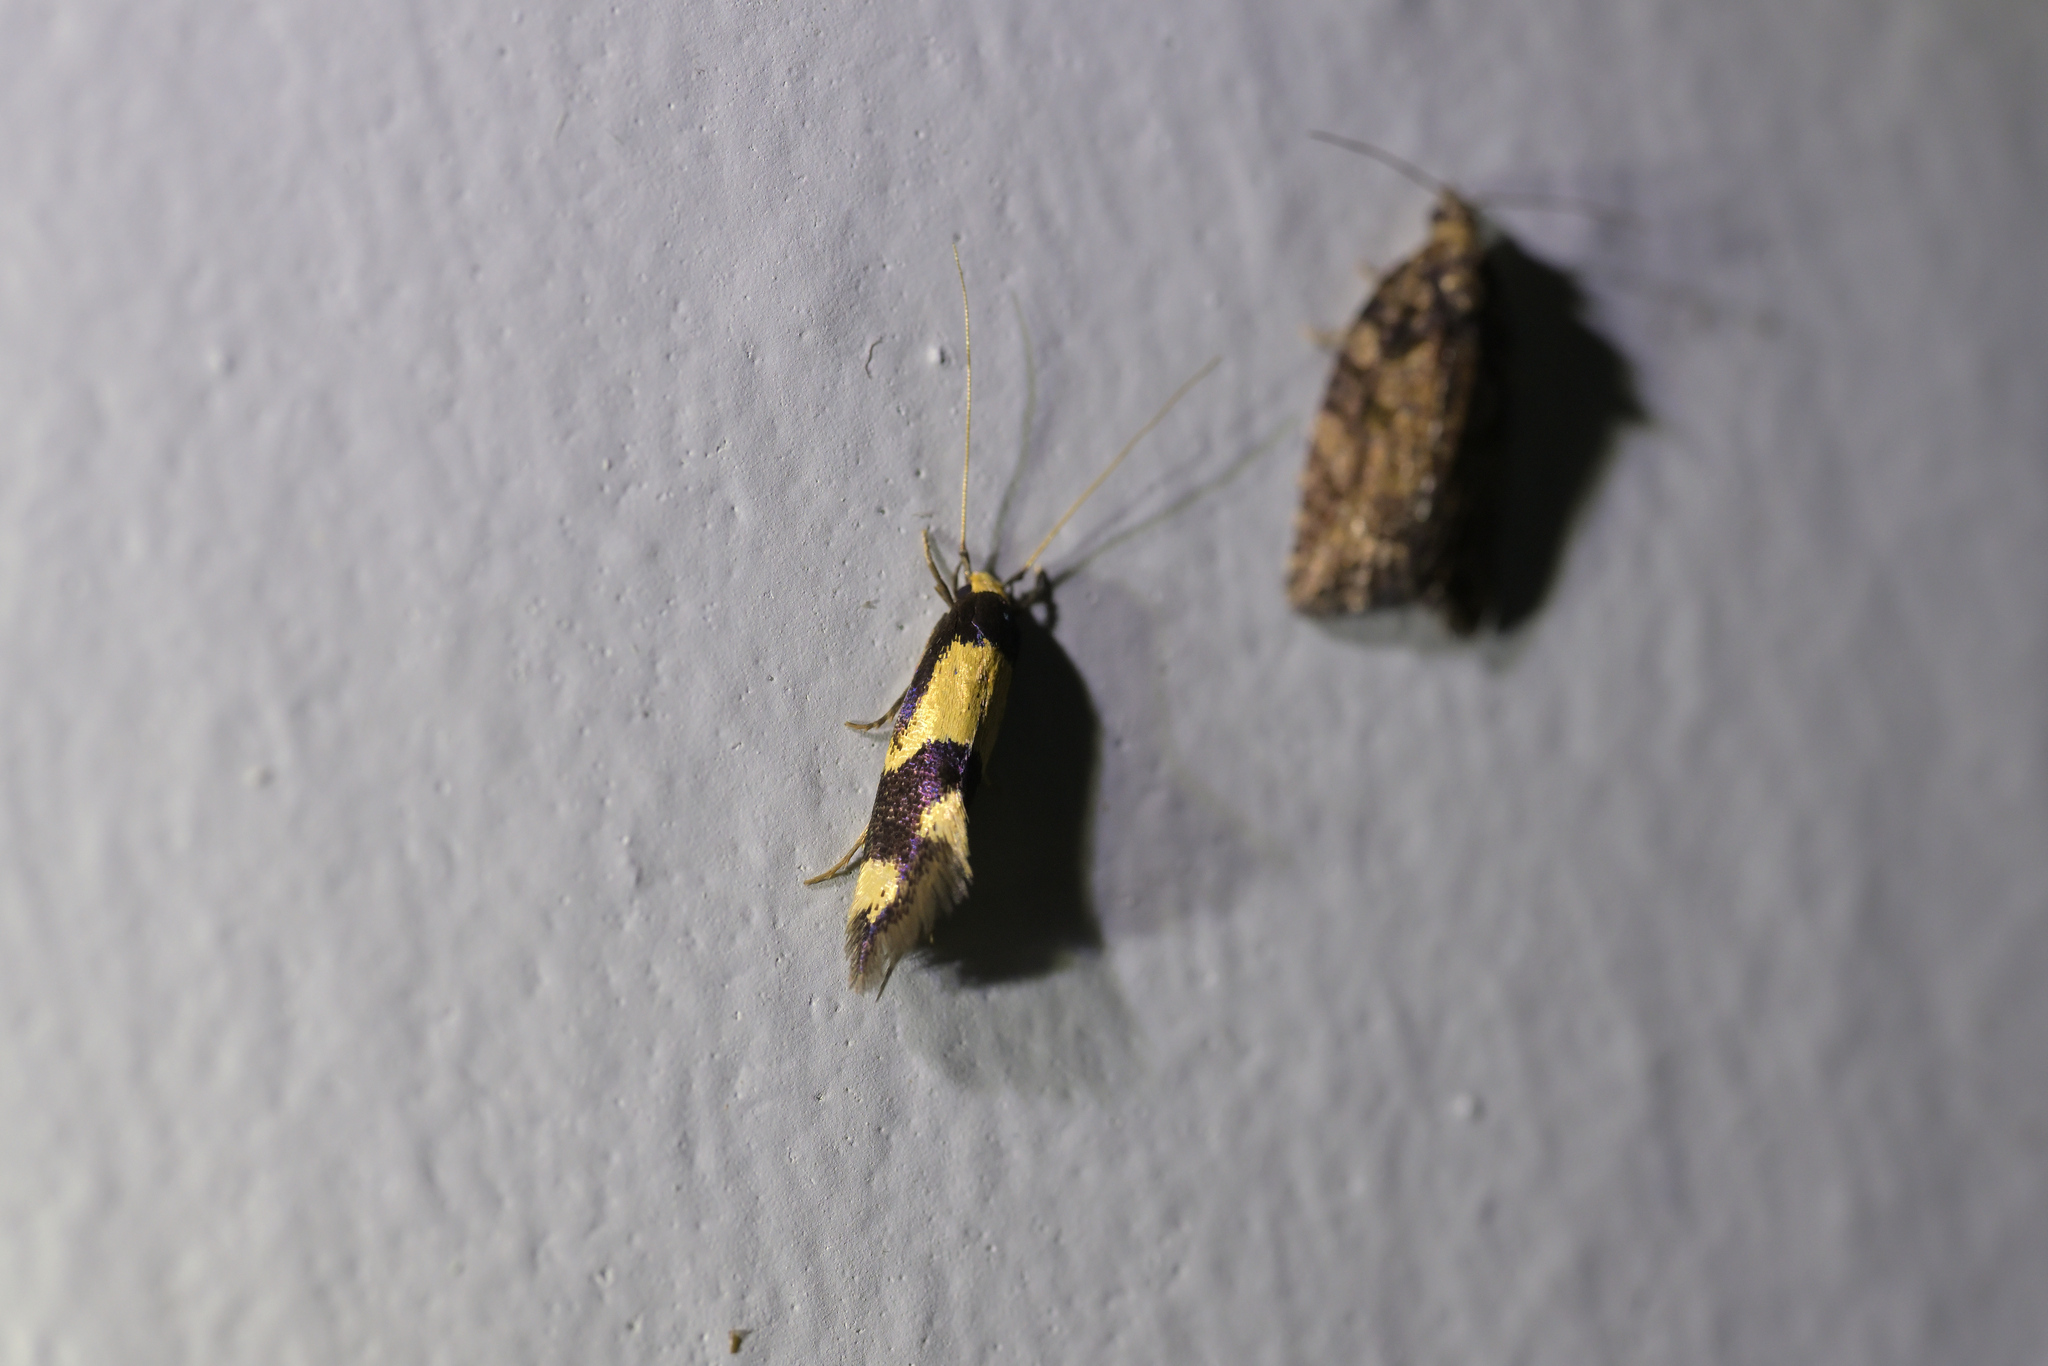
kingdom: Animalia
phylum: Arthropoda
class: Insecta
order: Lepidoptera
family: Tineidae
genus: Opogona
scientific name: Opogona comptella
